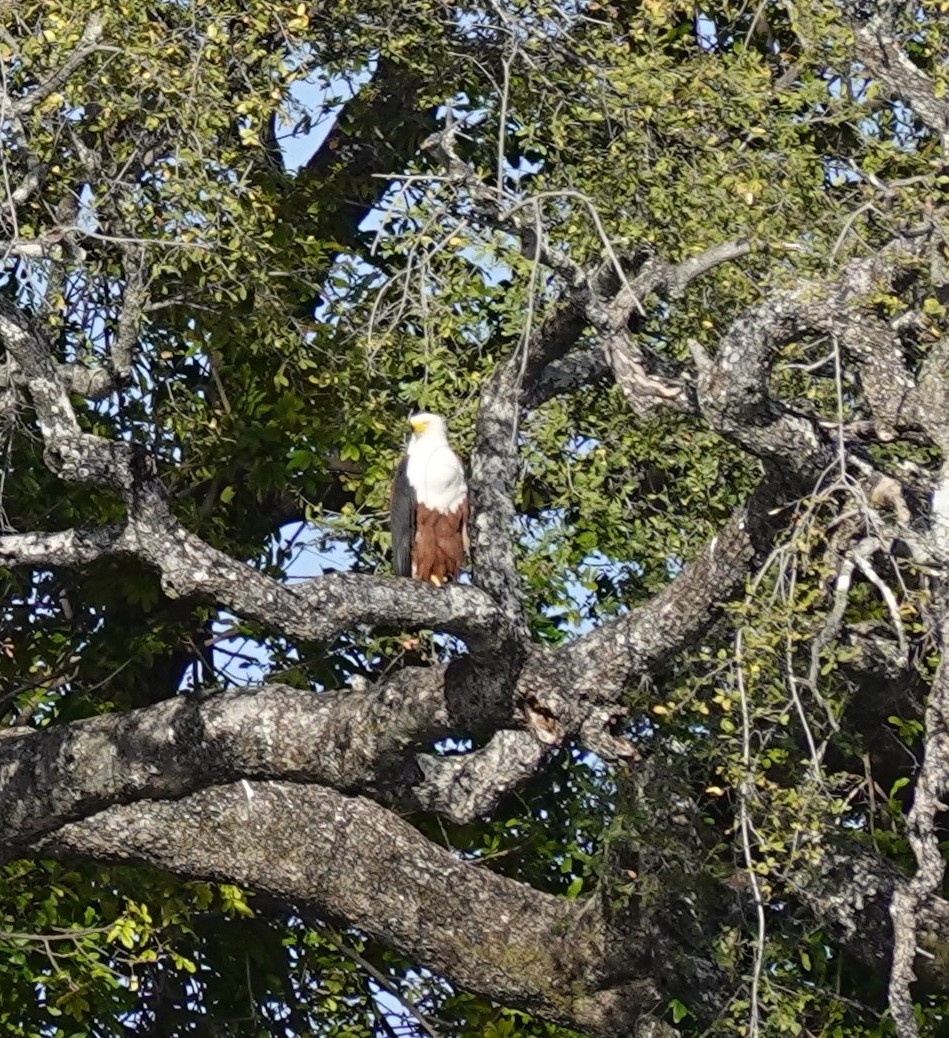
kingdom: Animalia
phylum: Chordata
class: Aves
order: Accipitriformes
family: Accipitridae
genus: Haliaeetus
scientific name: Haliaeetus vocifer
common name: African fish eagle
